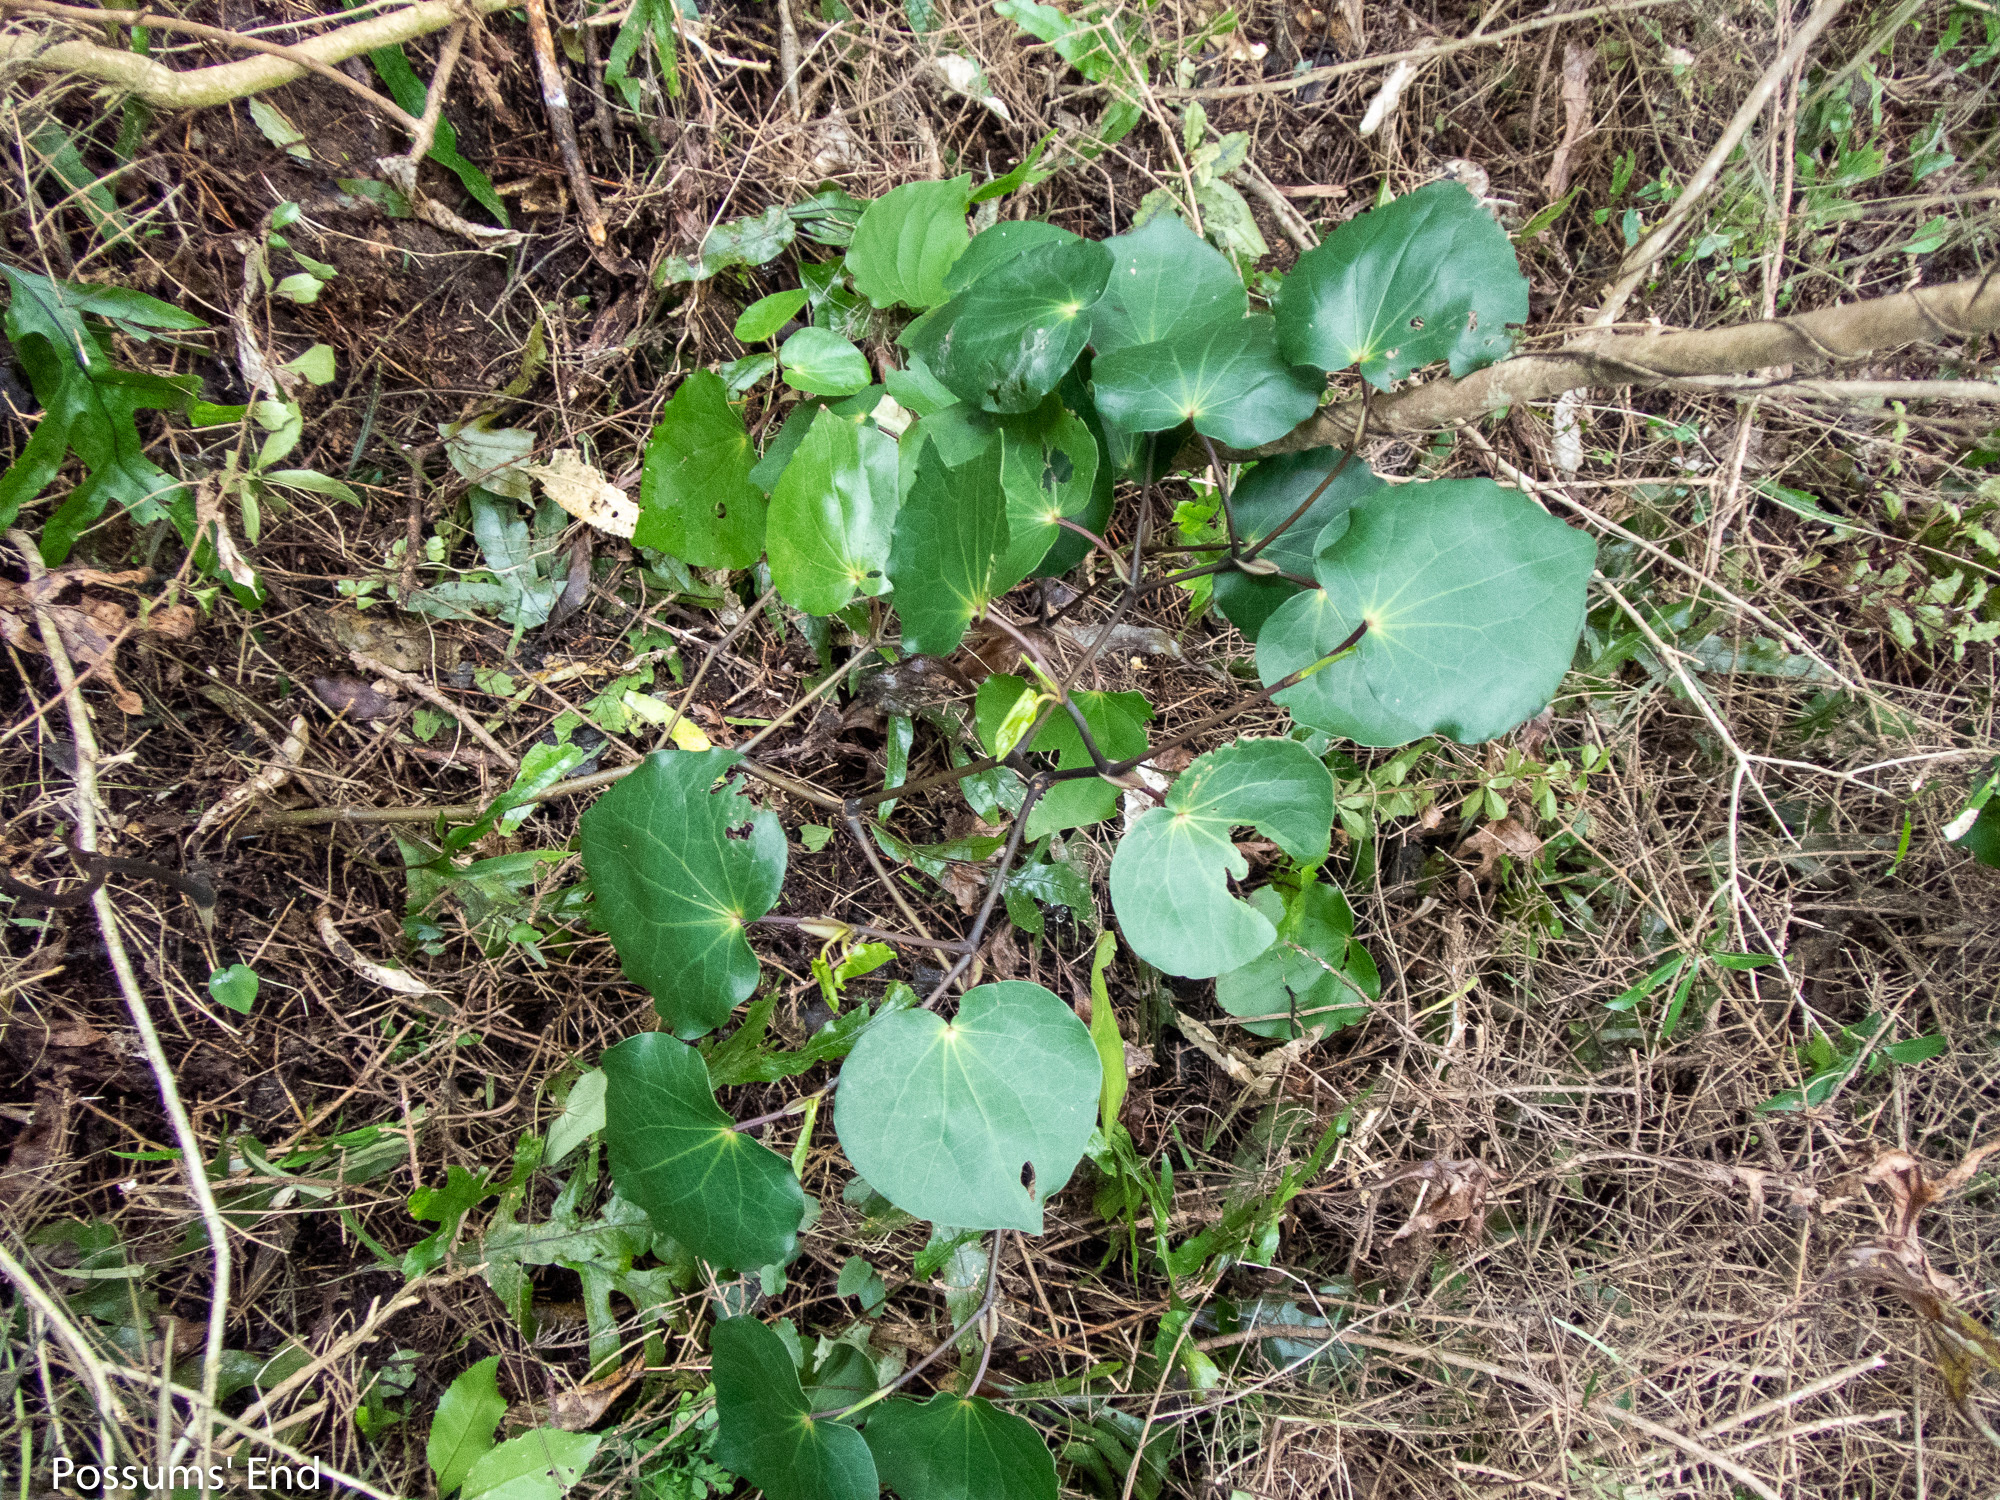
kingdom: Plantae
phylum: Tracheophyta
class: Magnoliopsida
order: Piperales
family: Piperaceae
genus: Macropiper
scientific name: Macropiper excelsum
